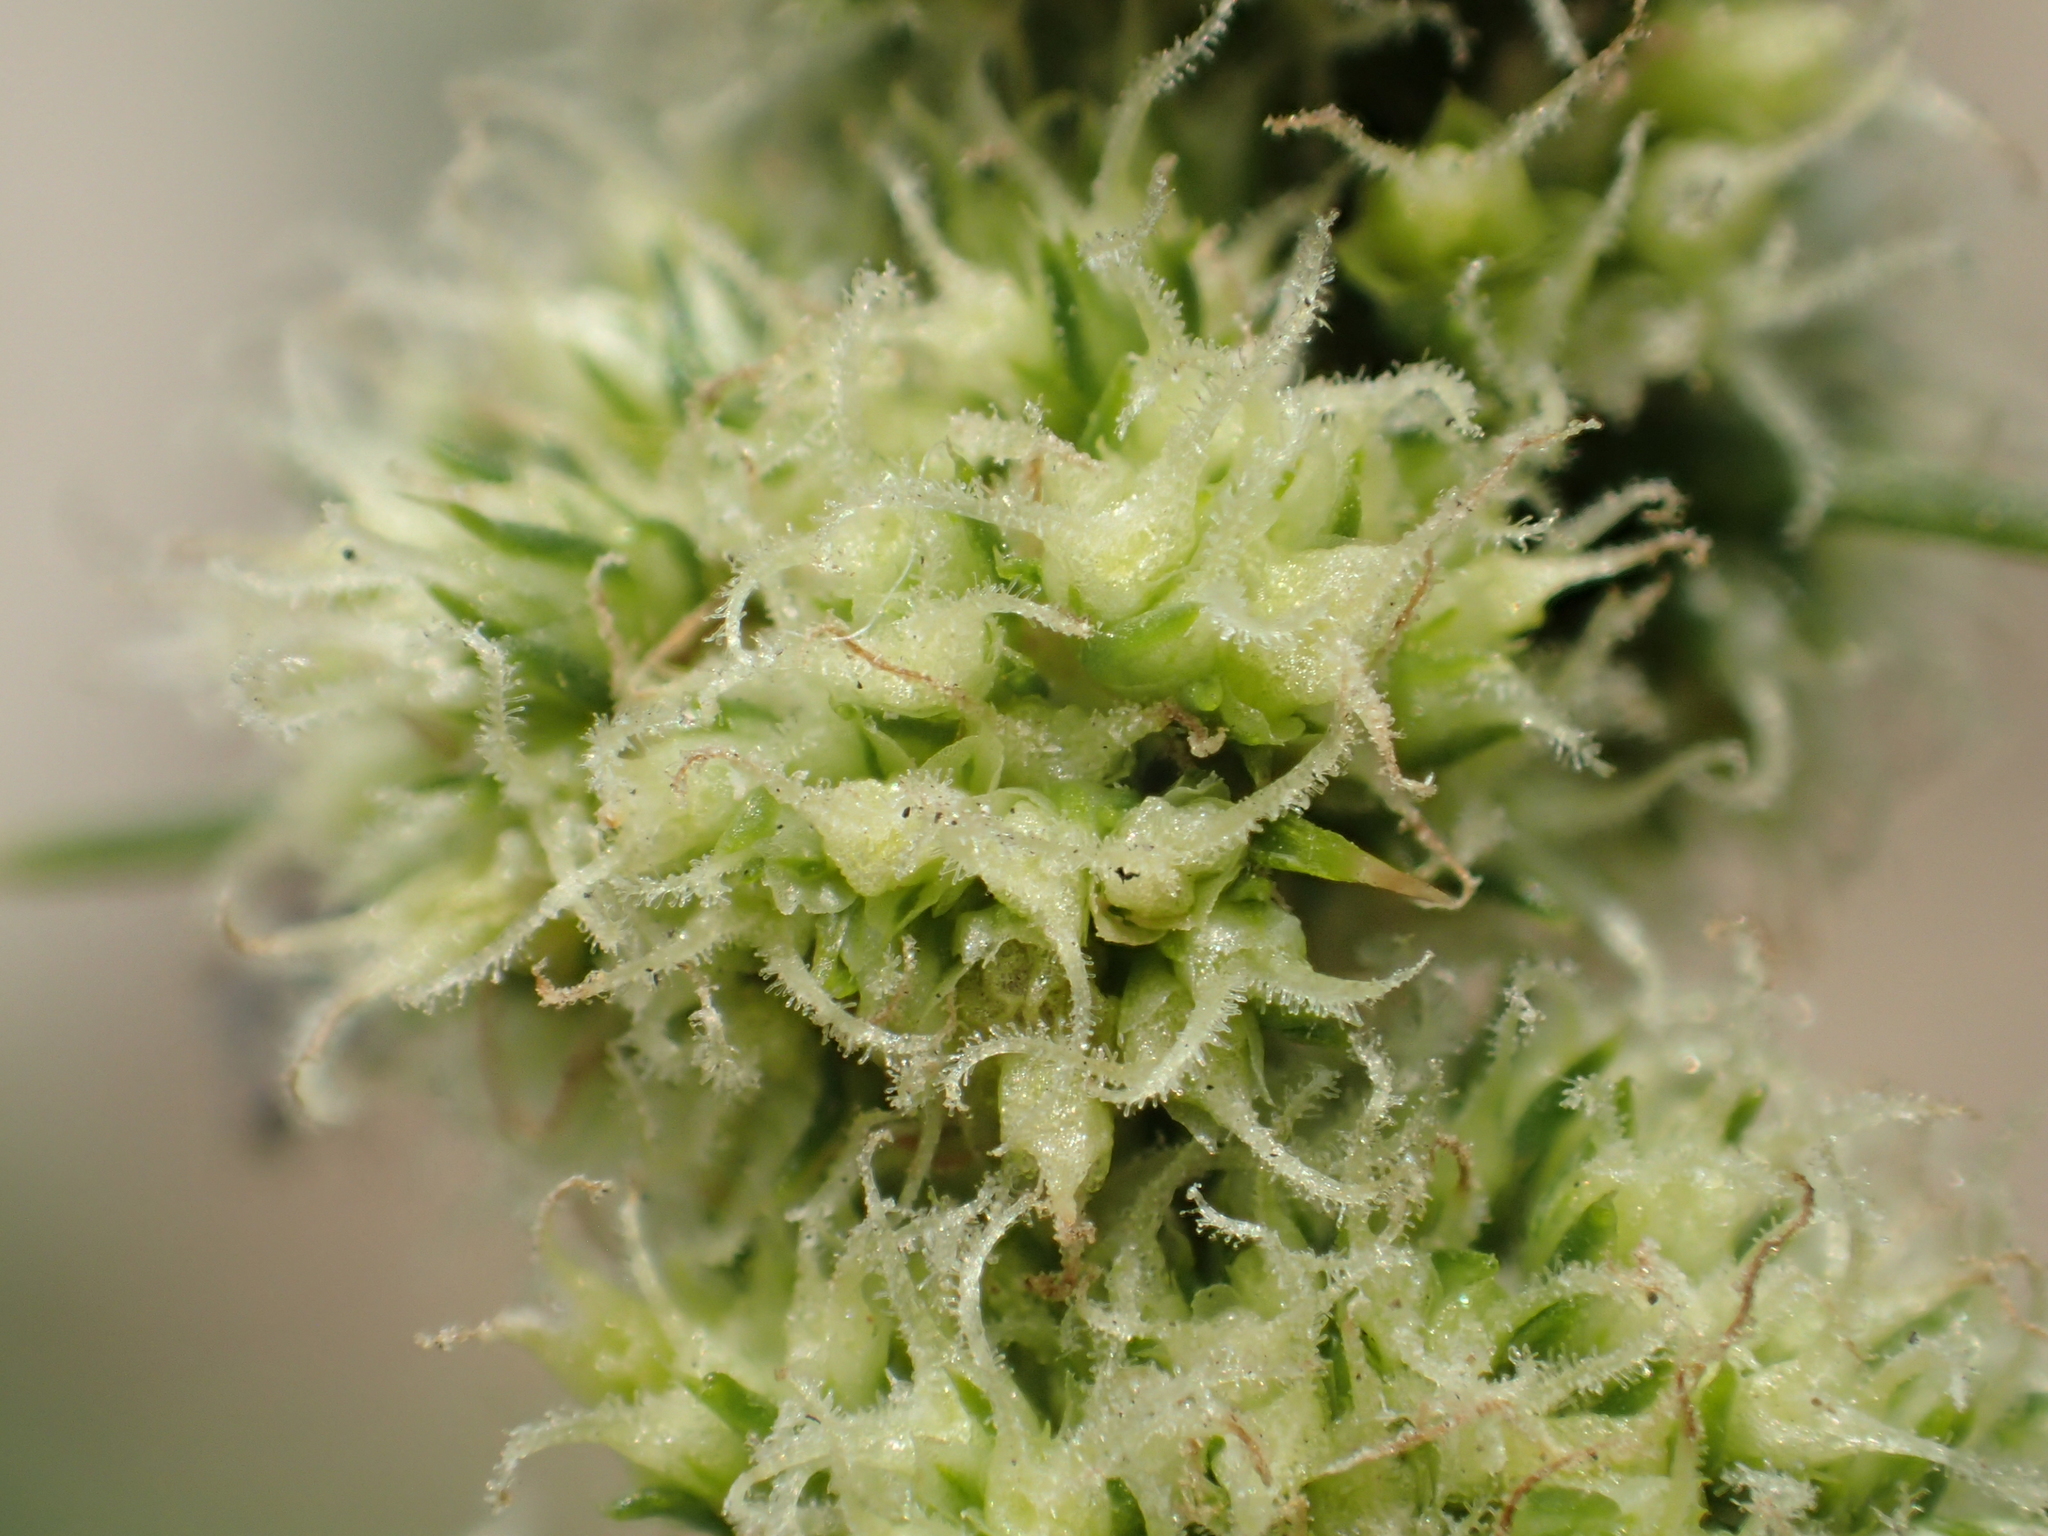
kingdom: Plantae
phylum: Tracheophyta
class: Magnoliopsida
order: Caryophyllales
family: Amaranthaceae
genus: Amaranthus
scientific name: Amaranthus spinosus
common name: Spiny amaranth
